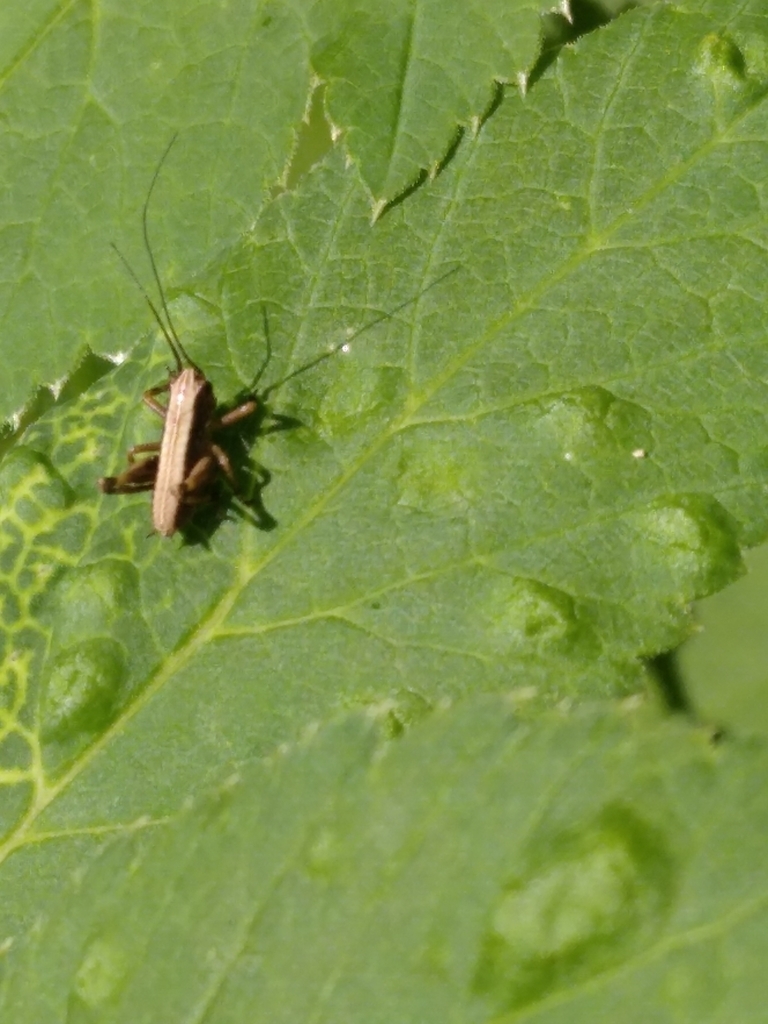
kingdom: Animalia
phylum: Arthropoda
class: Insecta
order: Orthoptera
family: Tettigoniidae
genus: Pholidoptera
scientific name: Pholidoptera griseoaptera
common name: Dark bush-cricket
